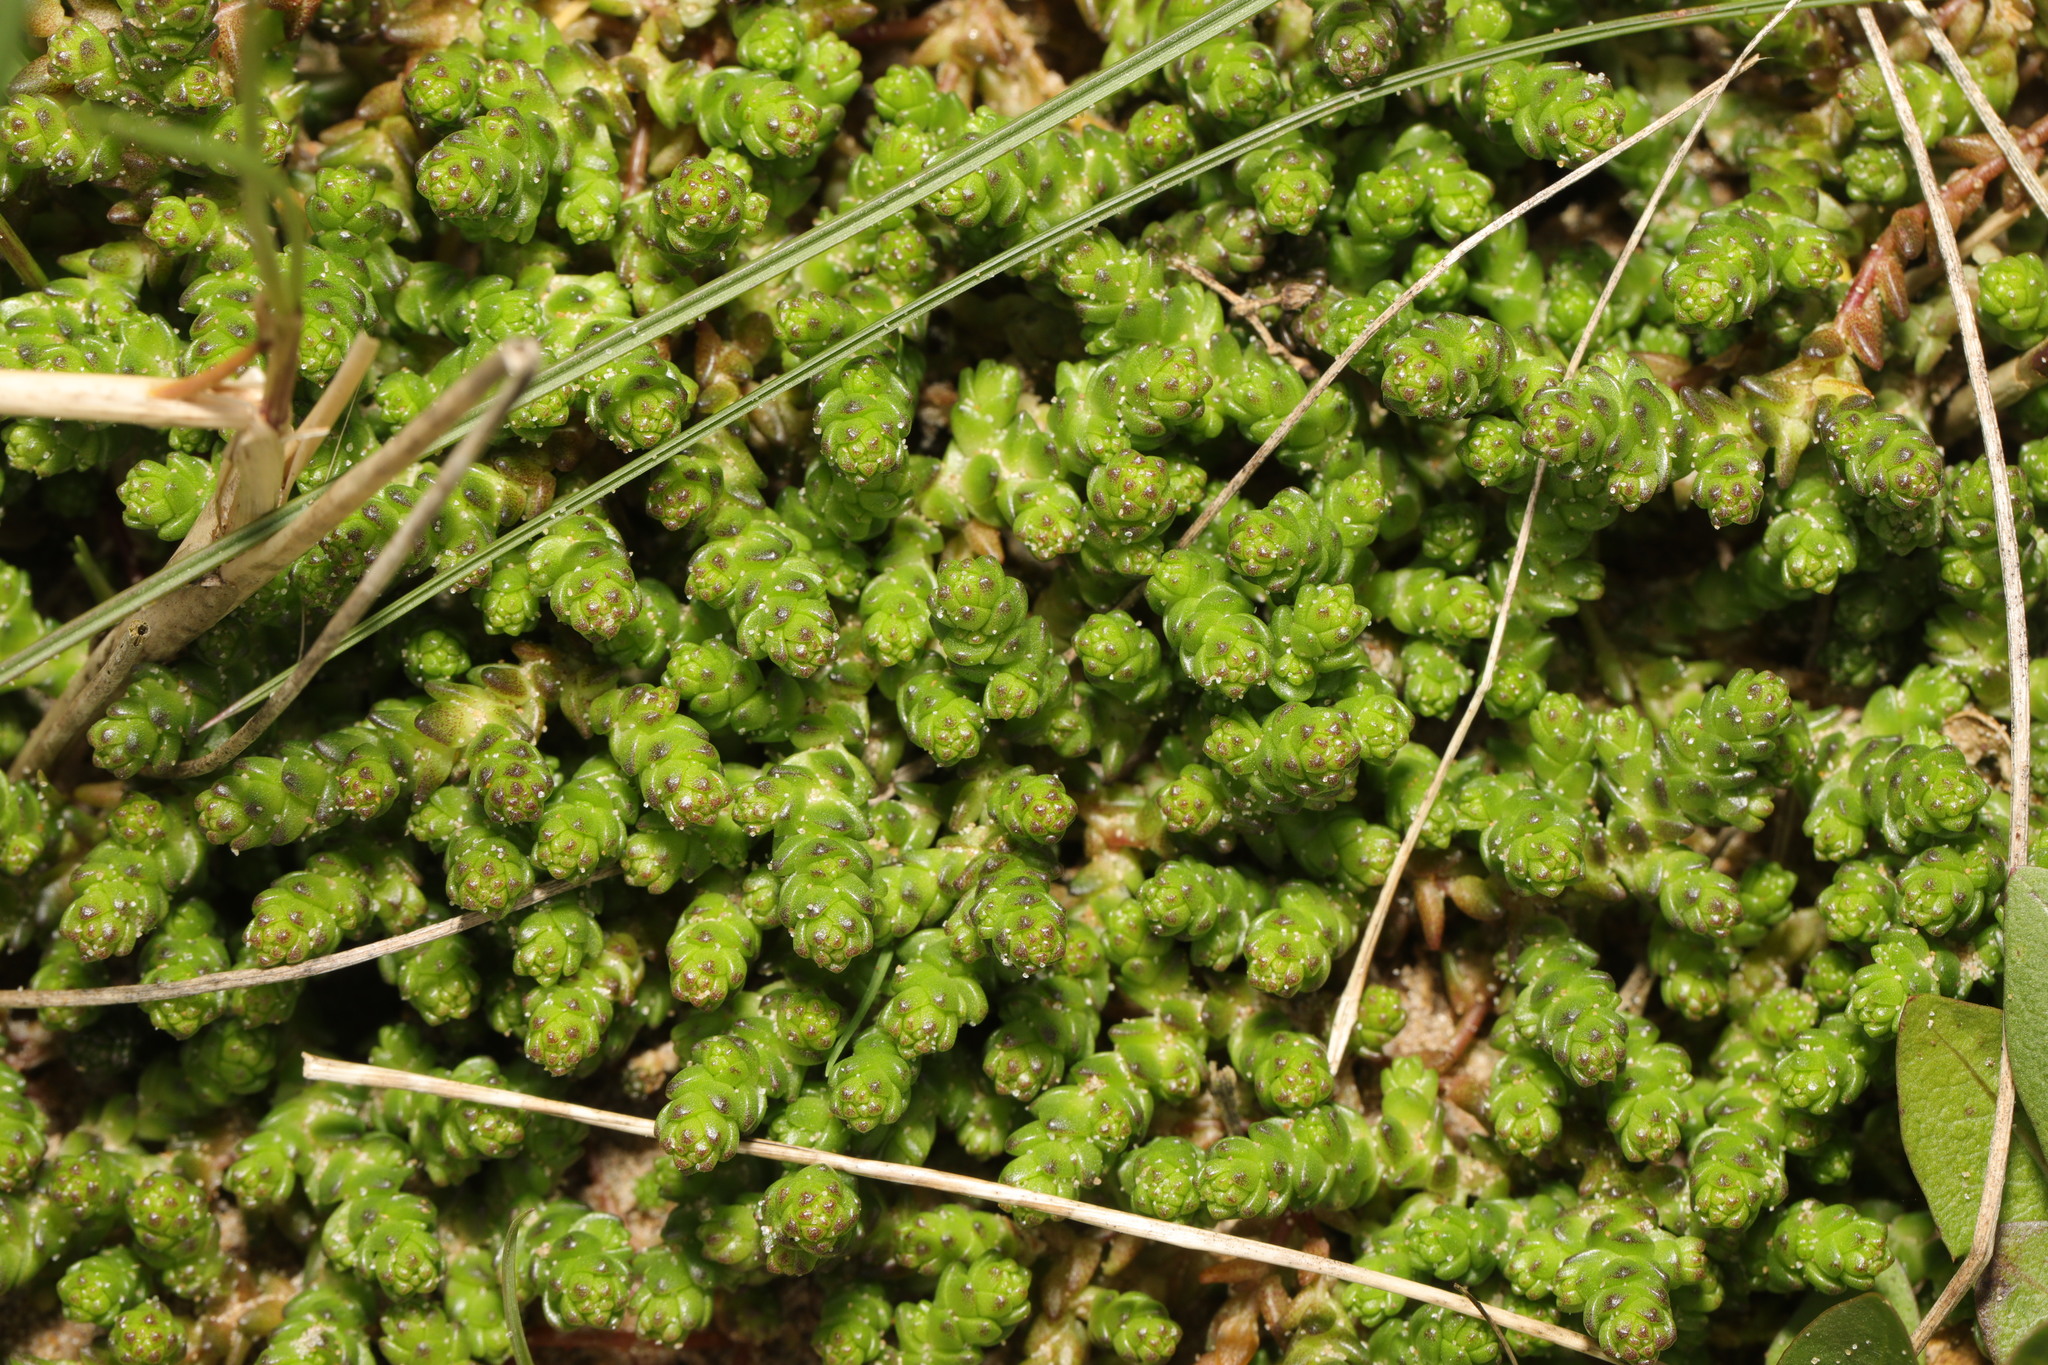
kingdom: Plantae
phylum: Tracheophyta
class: Magnoliopsida
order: Saxifragales
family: Crassulaceae
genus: Sedum
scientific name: Sedum acre
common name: Biting stonecrop
